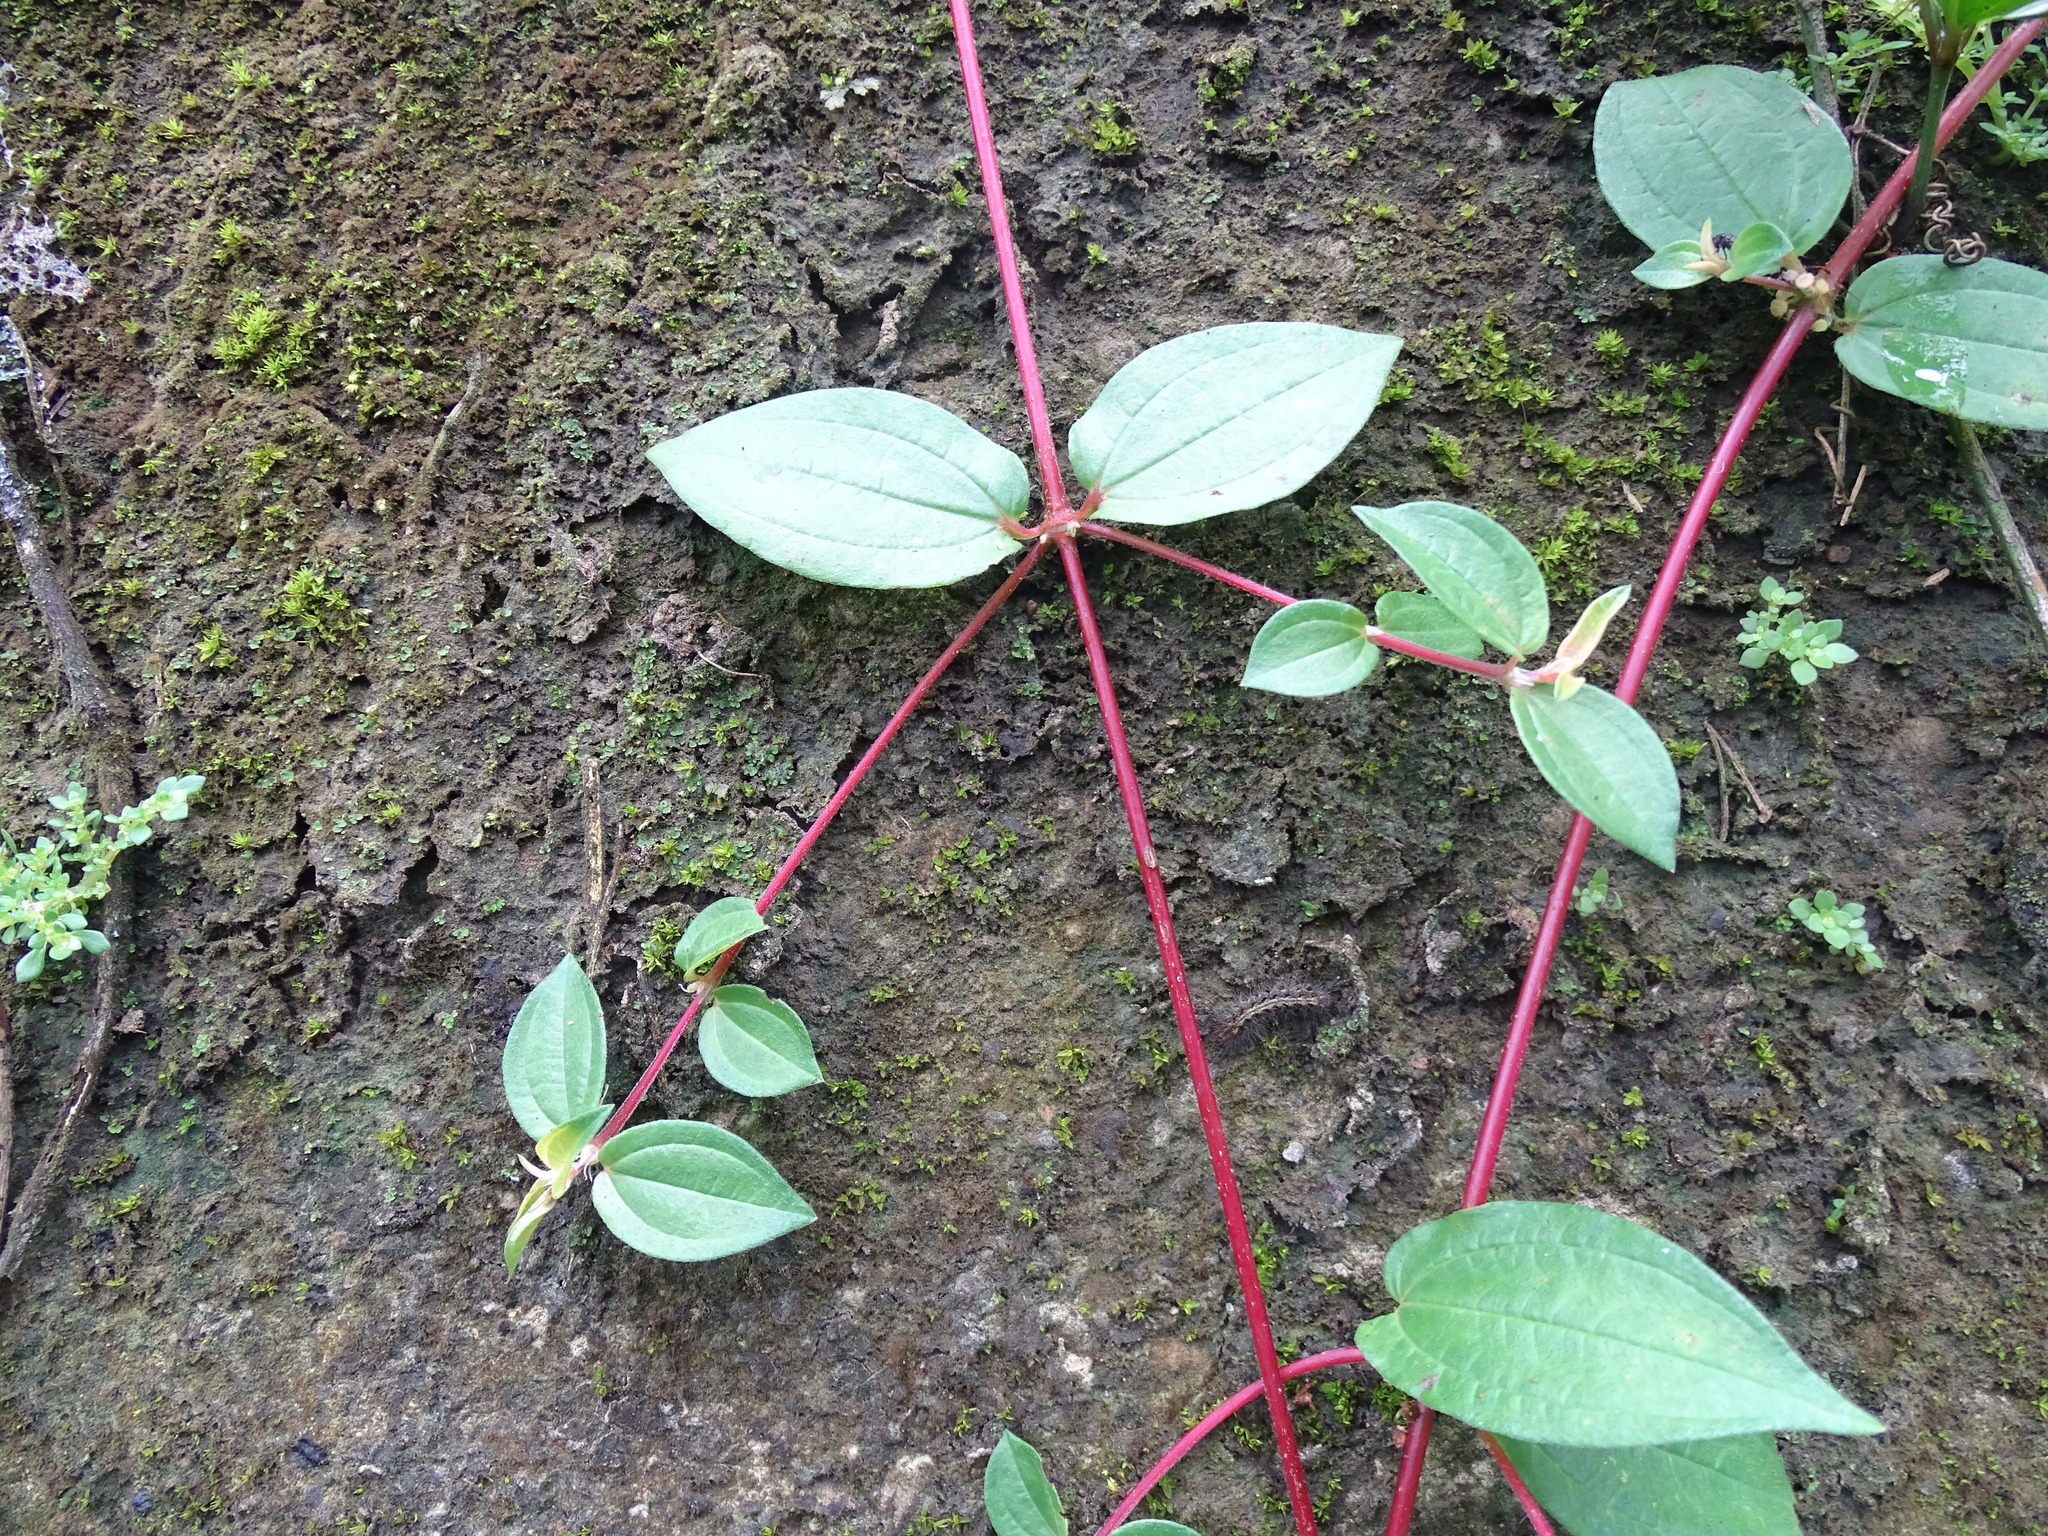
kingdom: Plantae
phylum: Tracheophyta
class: Magnoliopsida
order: Rosales
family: Urticaceae
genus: Gonostegia
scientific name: Gonostegia triandra
